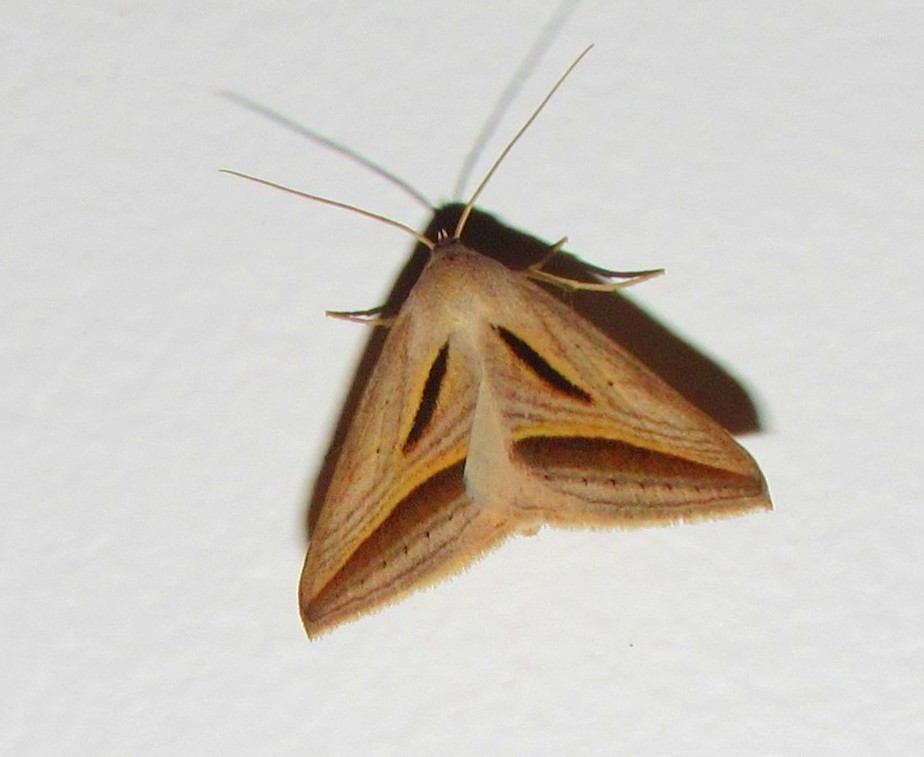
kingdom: Animalia
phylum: Arthropoda
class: Insecta
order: Lepidoptera
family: Erebidae
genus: Ptichodis
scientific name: Ptichodis dorsalis
